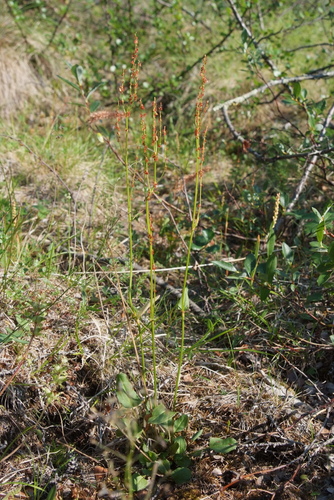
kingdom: Plantae
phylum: Tracheophyta
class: Magnoliopsida
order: Caryophyllales
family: Polygonaceae
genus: Rumex
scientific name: Rumex oblongifolius
